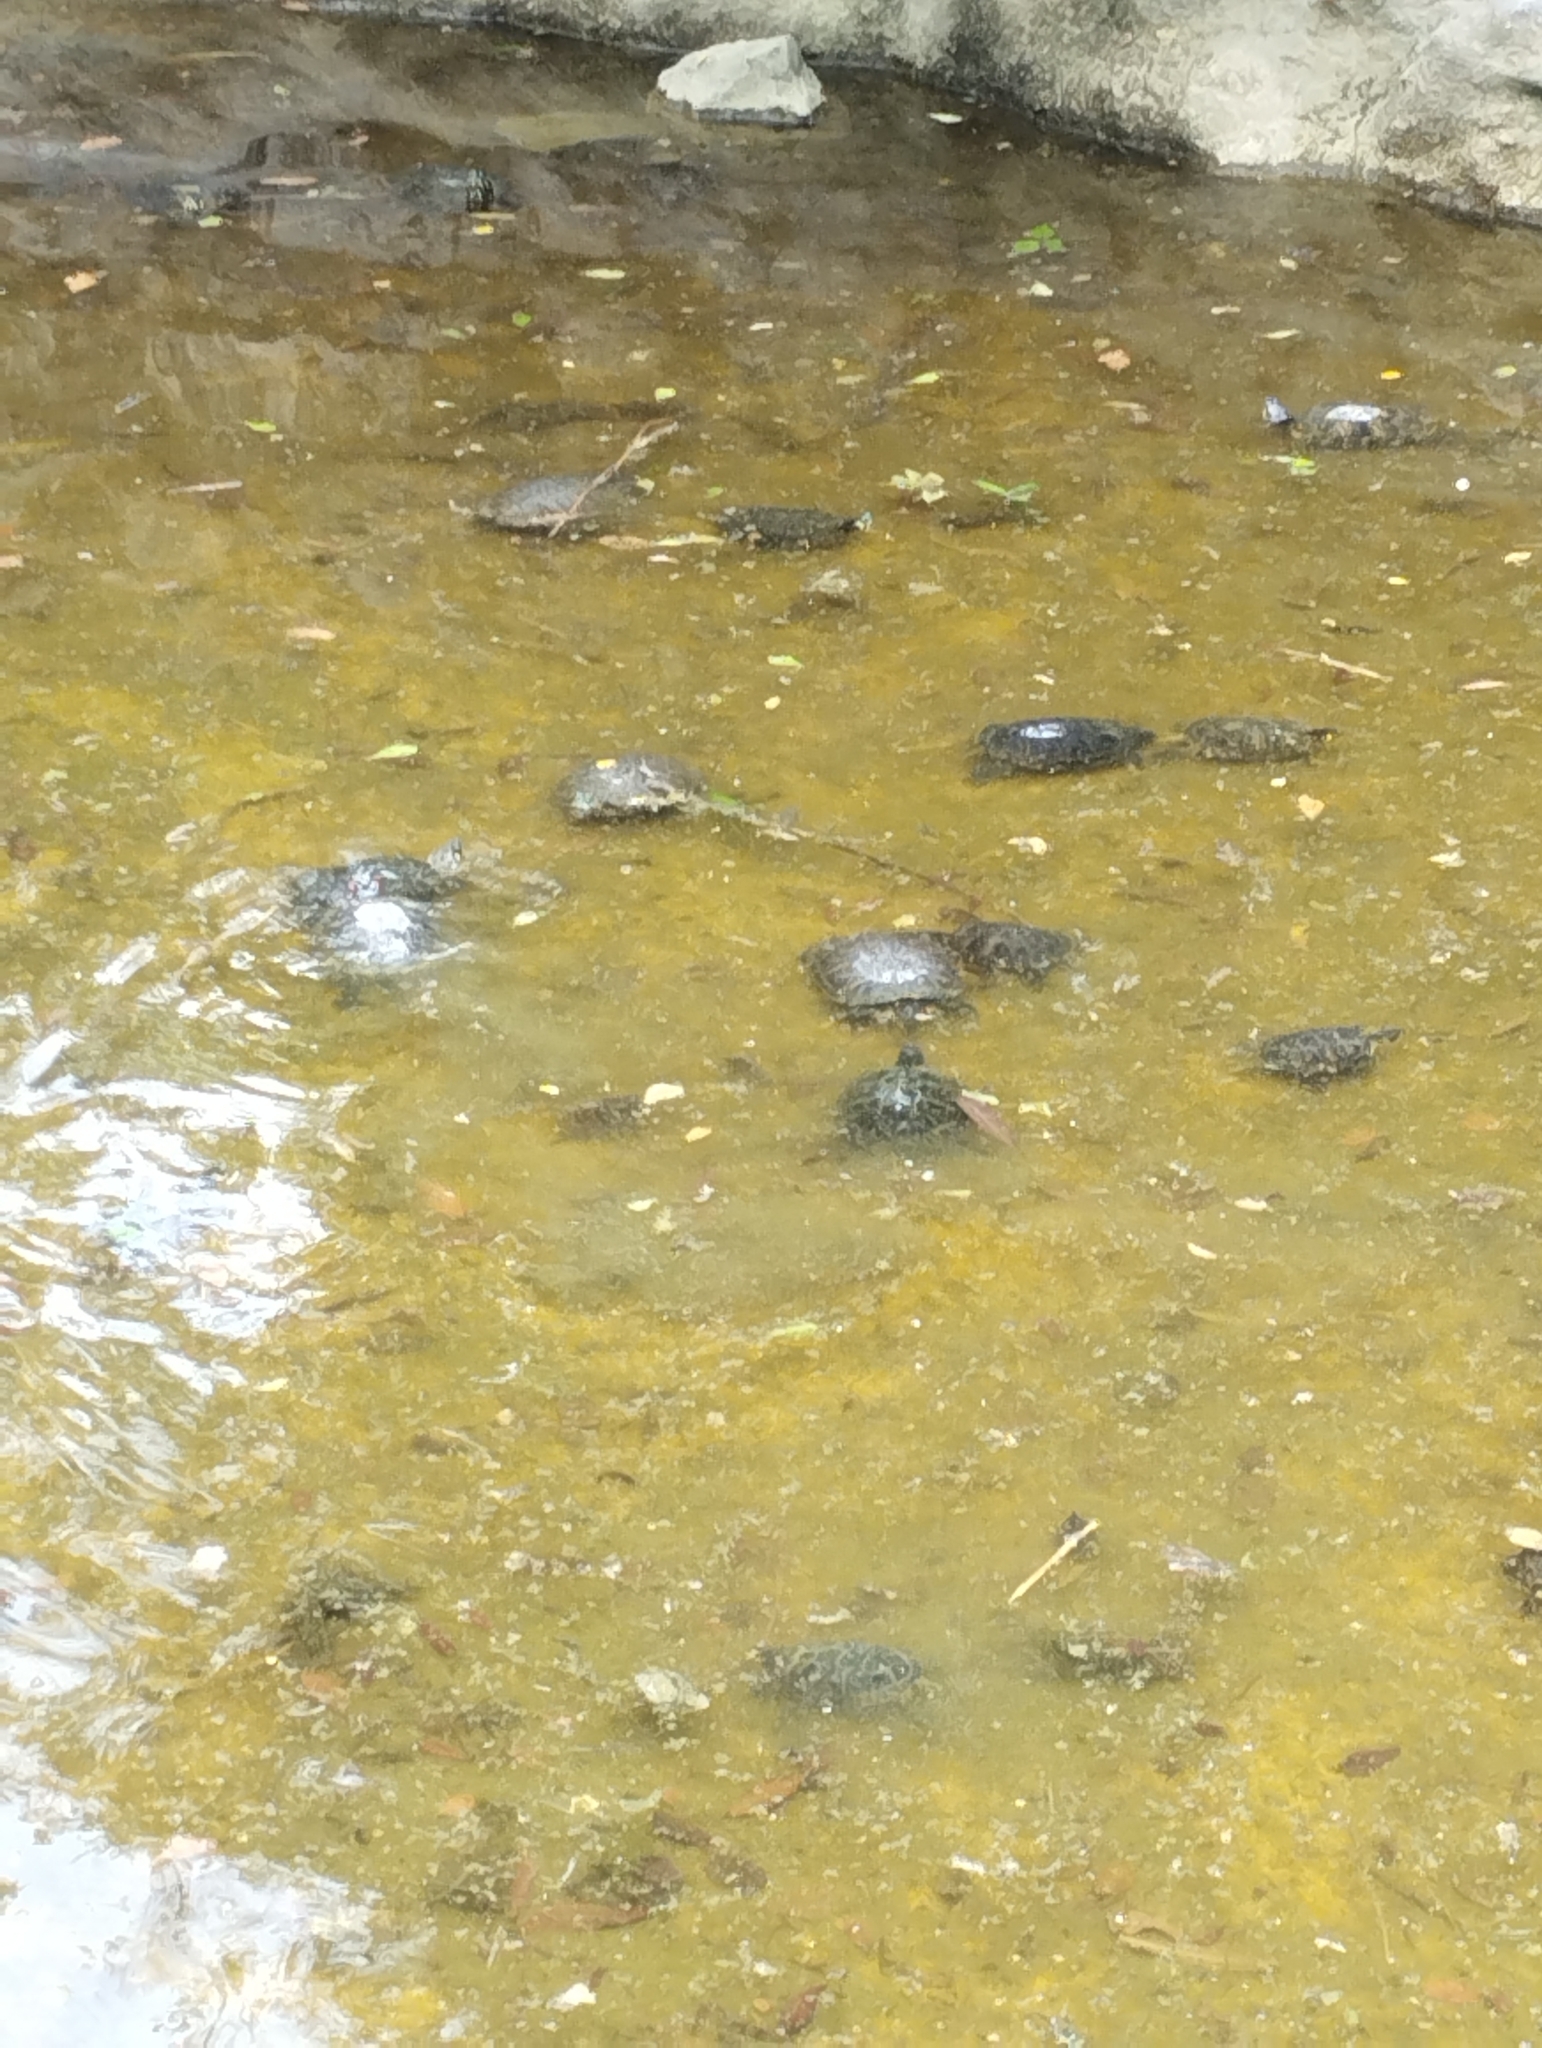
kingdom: Animalia
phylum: Chordata
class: Testudines
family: Emydidae
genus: Trachemys
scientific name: Trachemys scripta
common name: Slider
